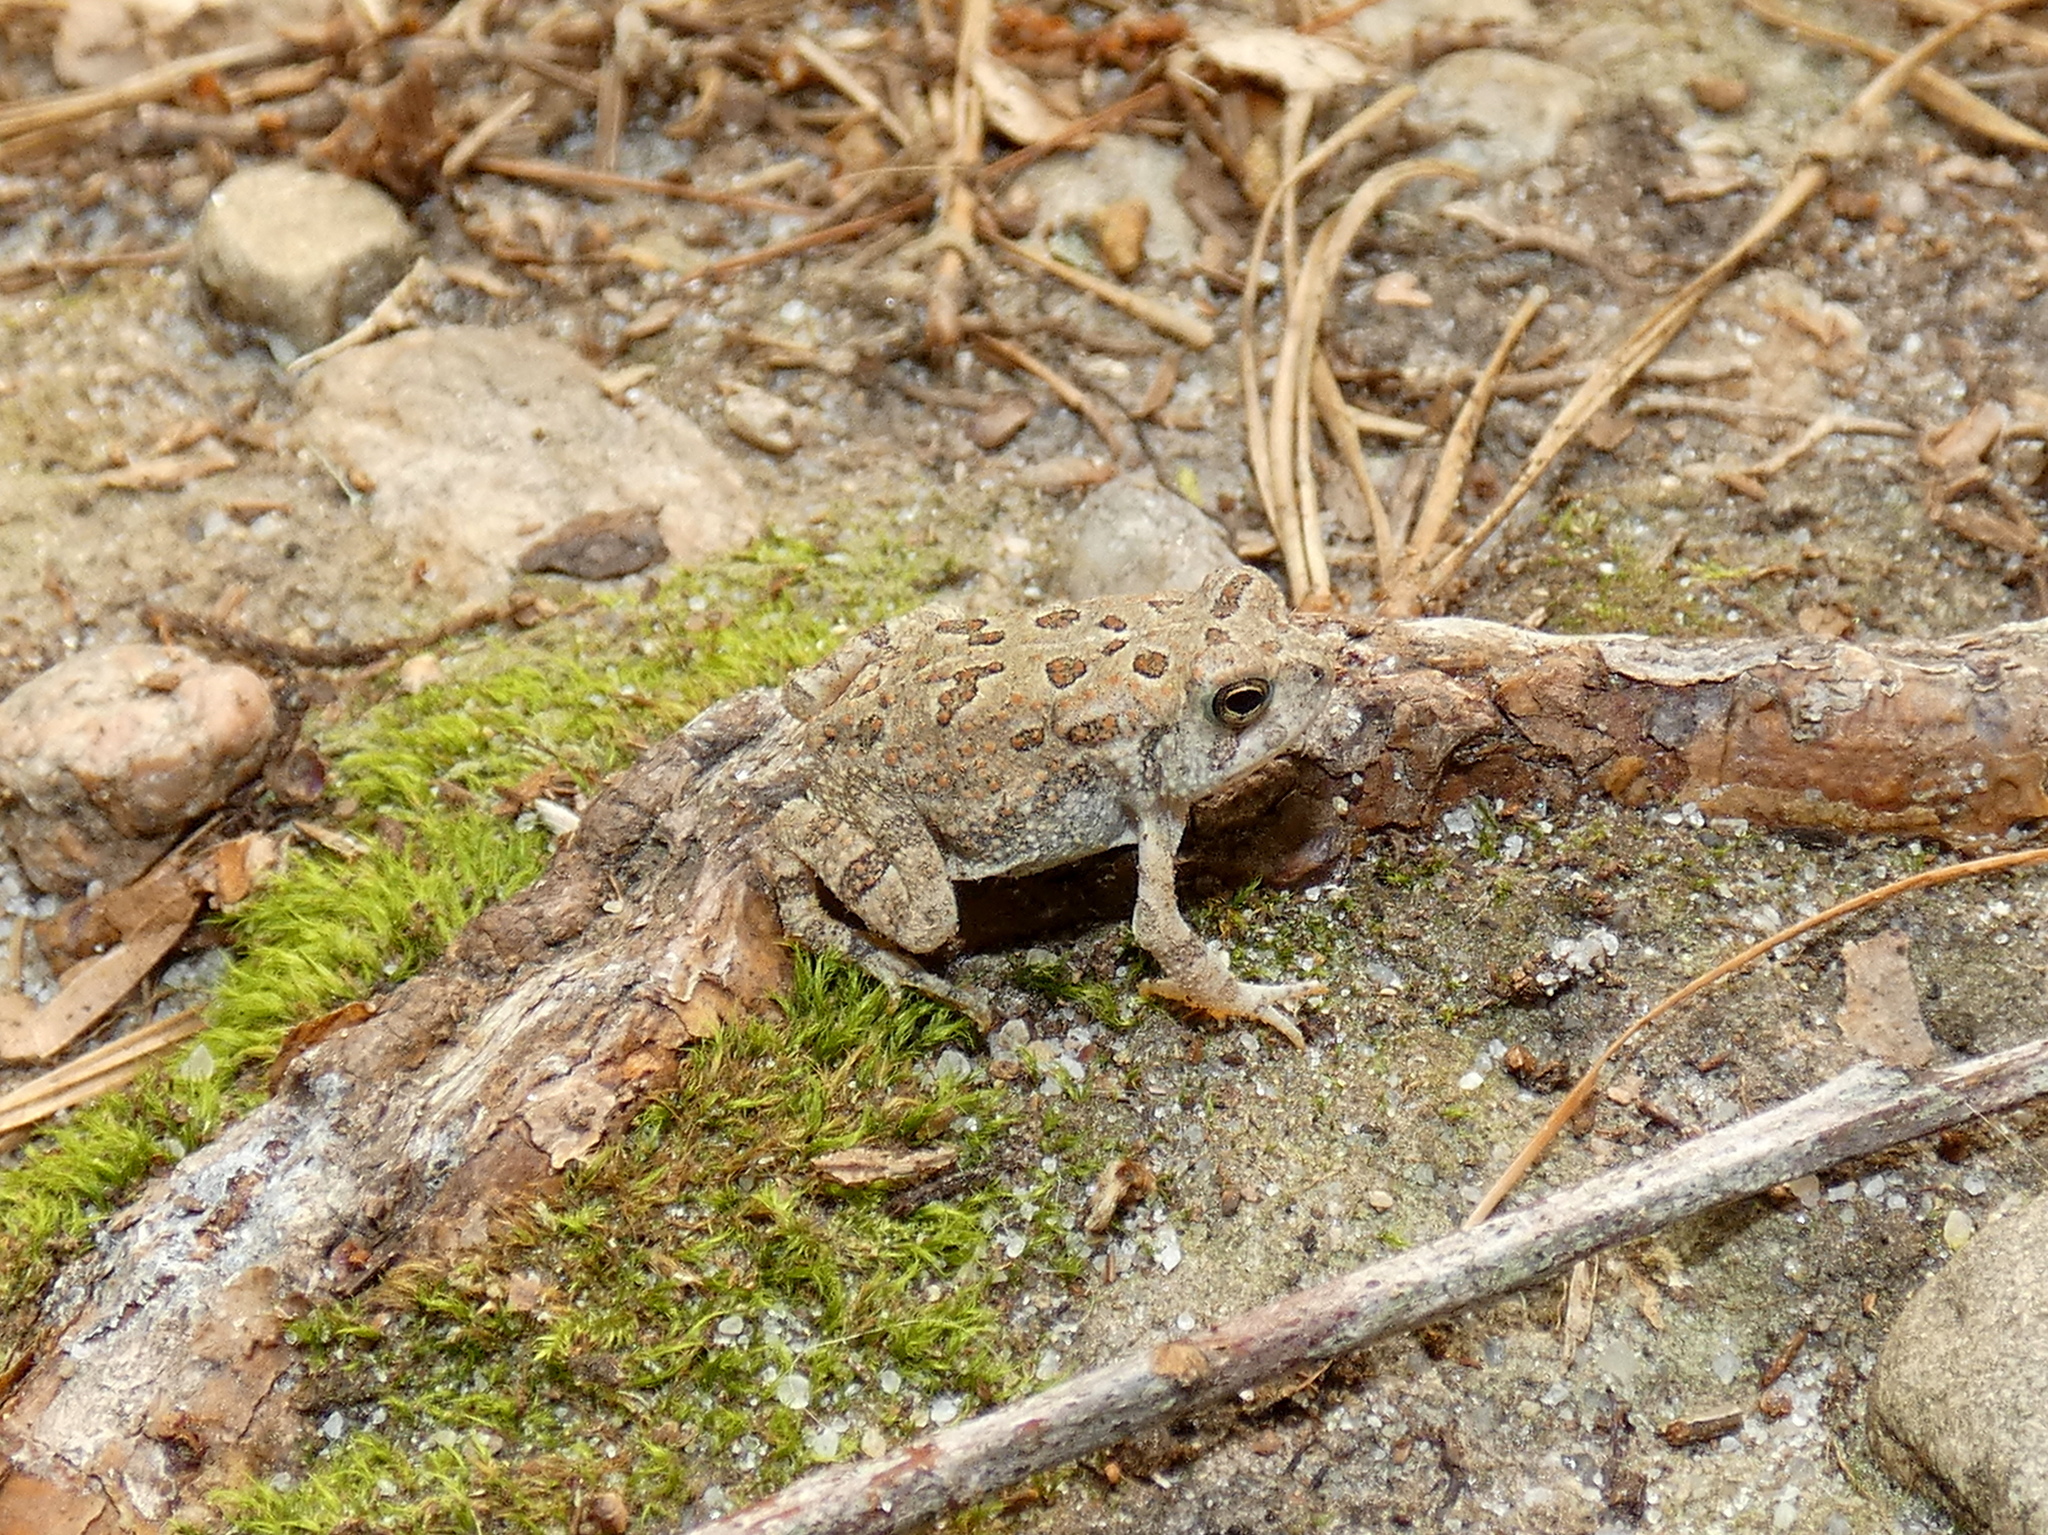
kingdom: Animalia
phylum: Chordata
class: Amphibia
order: Anura
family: Bufonidae
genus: Anaxyrus
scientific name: Anaxyrus fowleri
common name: Fowler's toad
